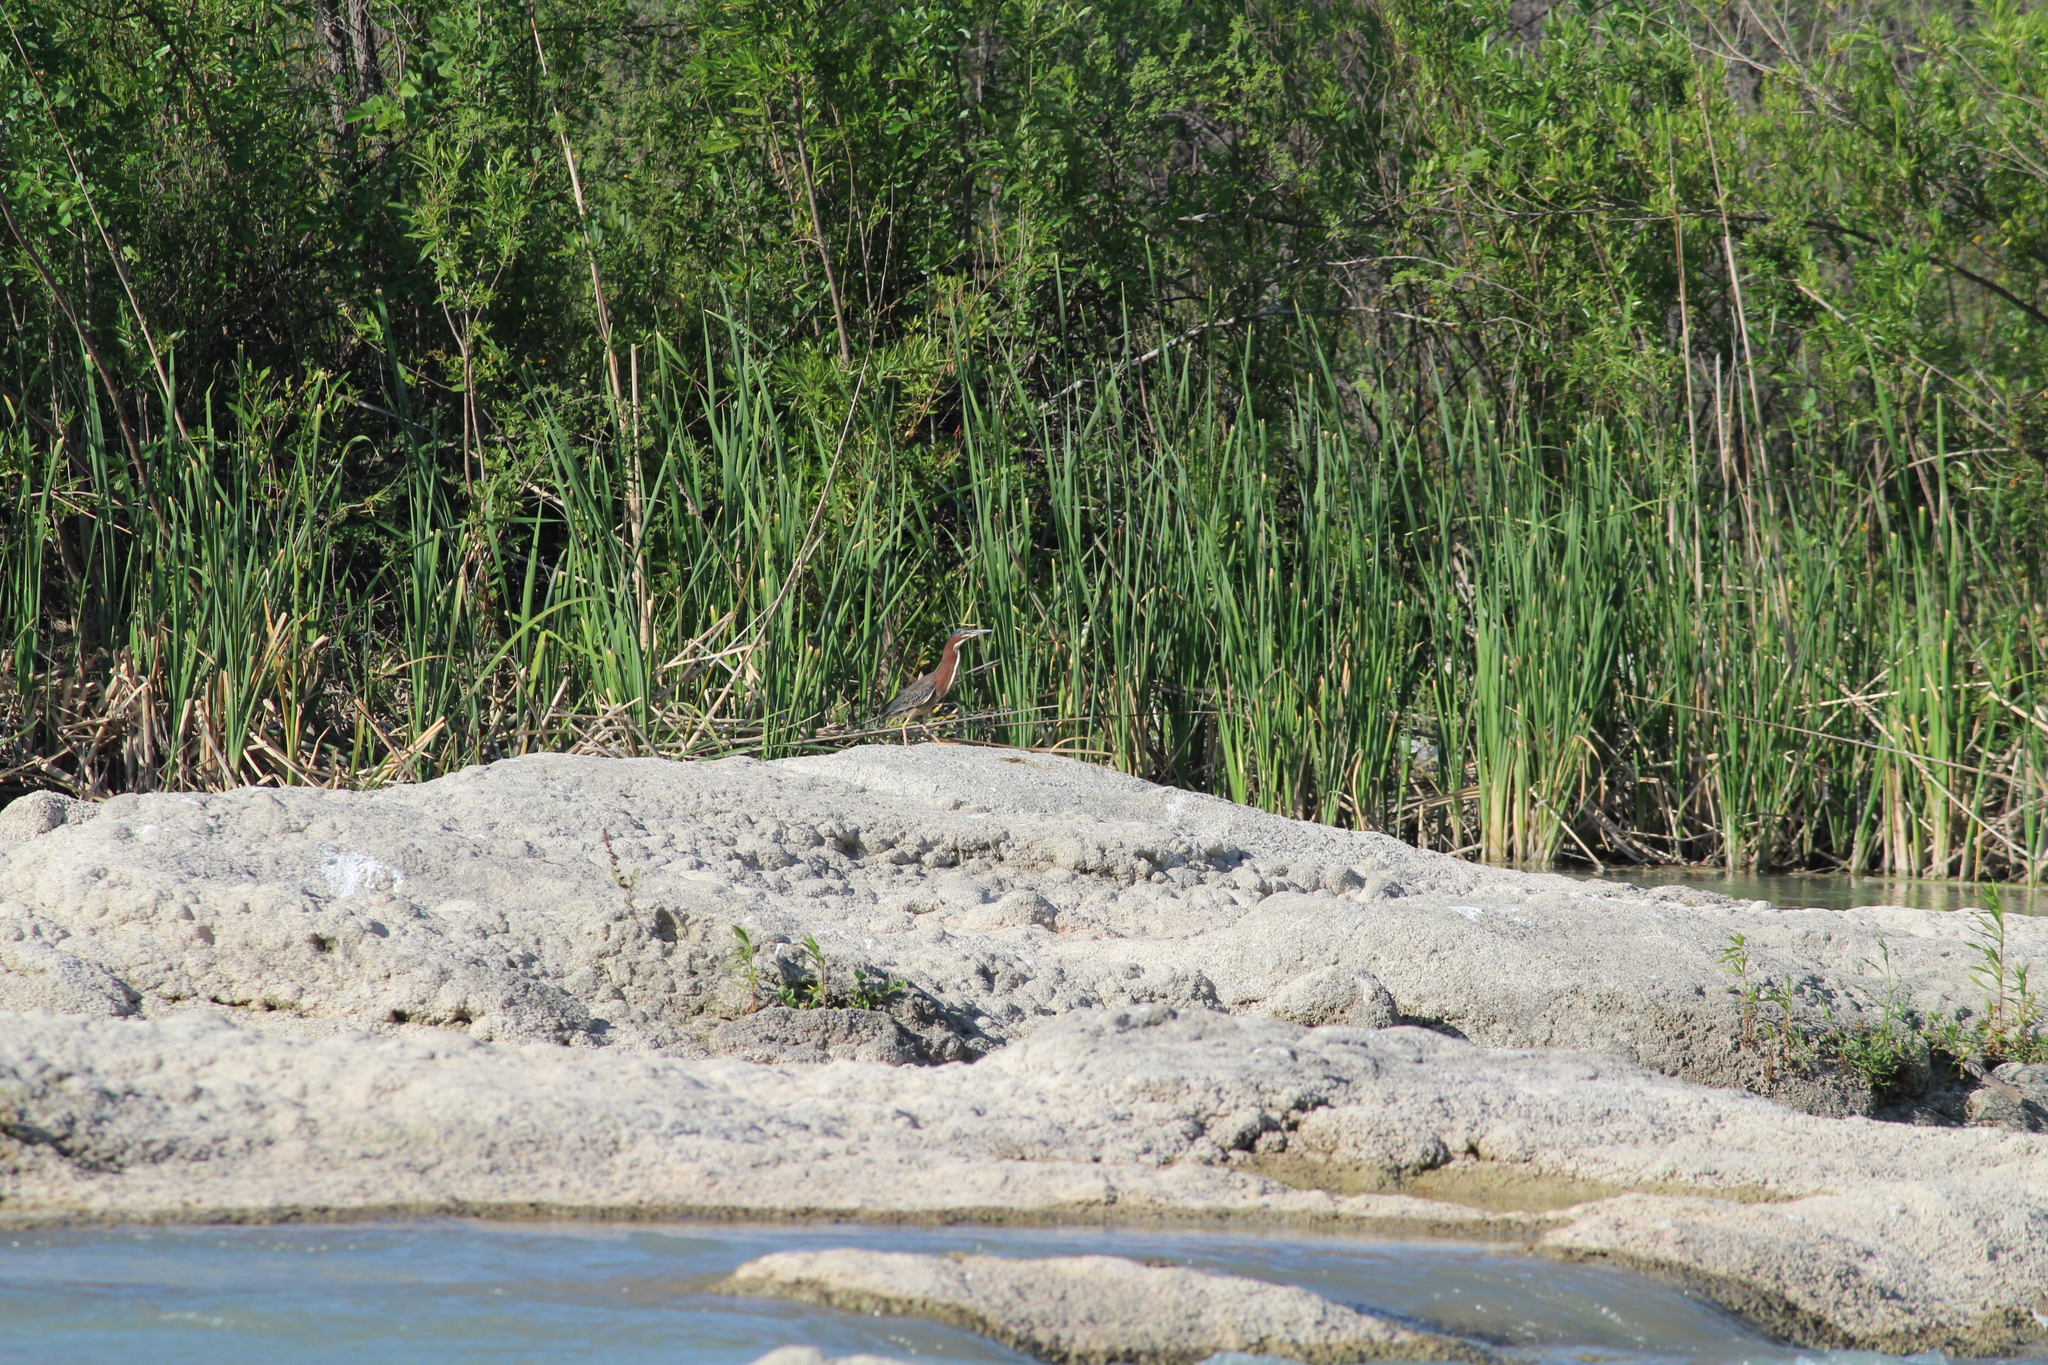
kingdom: Animalia
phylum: Chordata
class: Aves
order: Pelecaniformes
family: Ardeidae
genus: Butorides
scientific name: Butorides virescens
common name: Green heron
